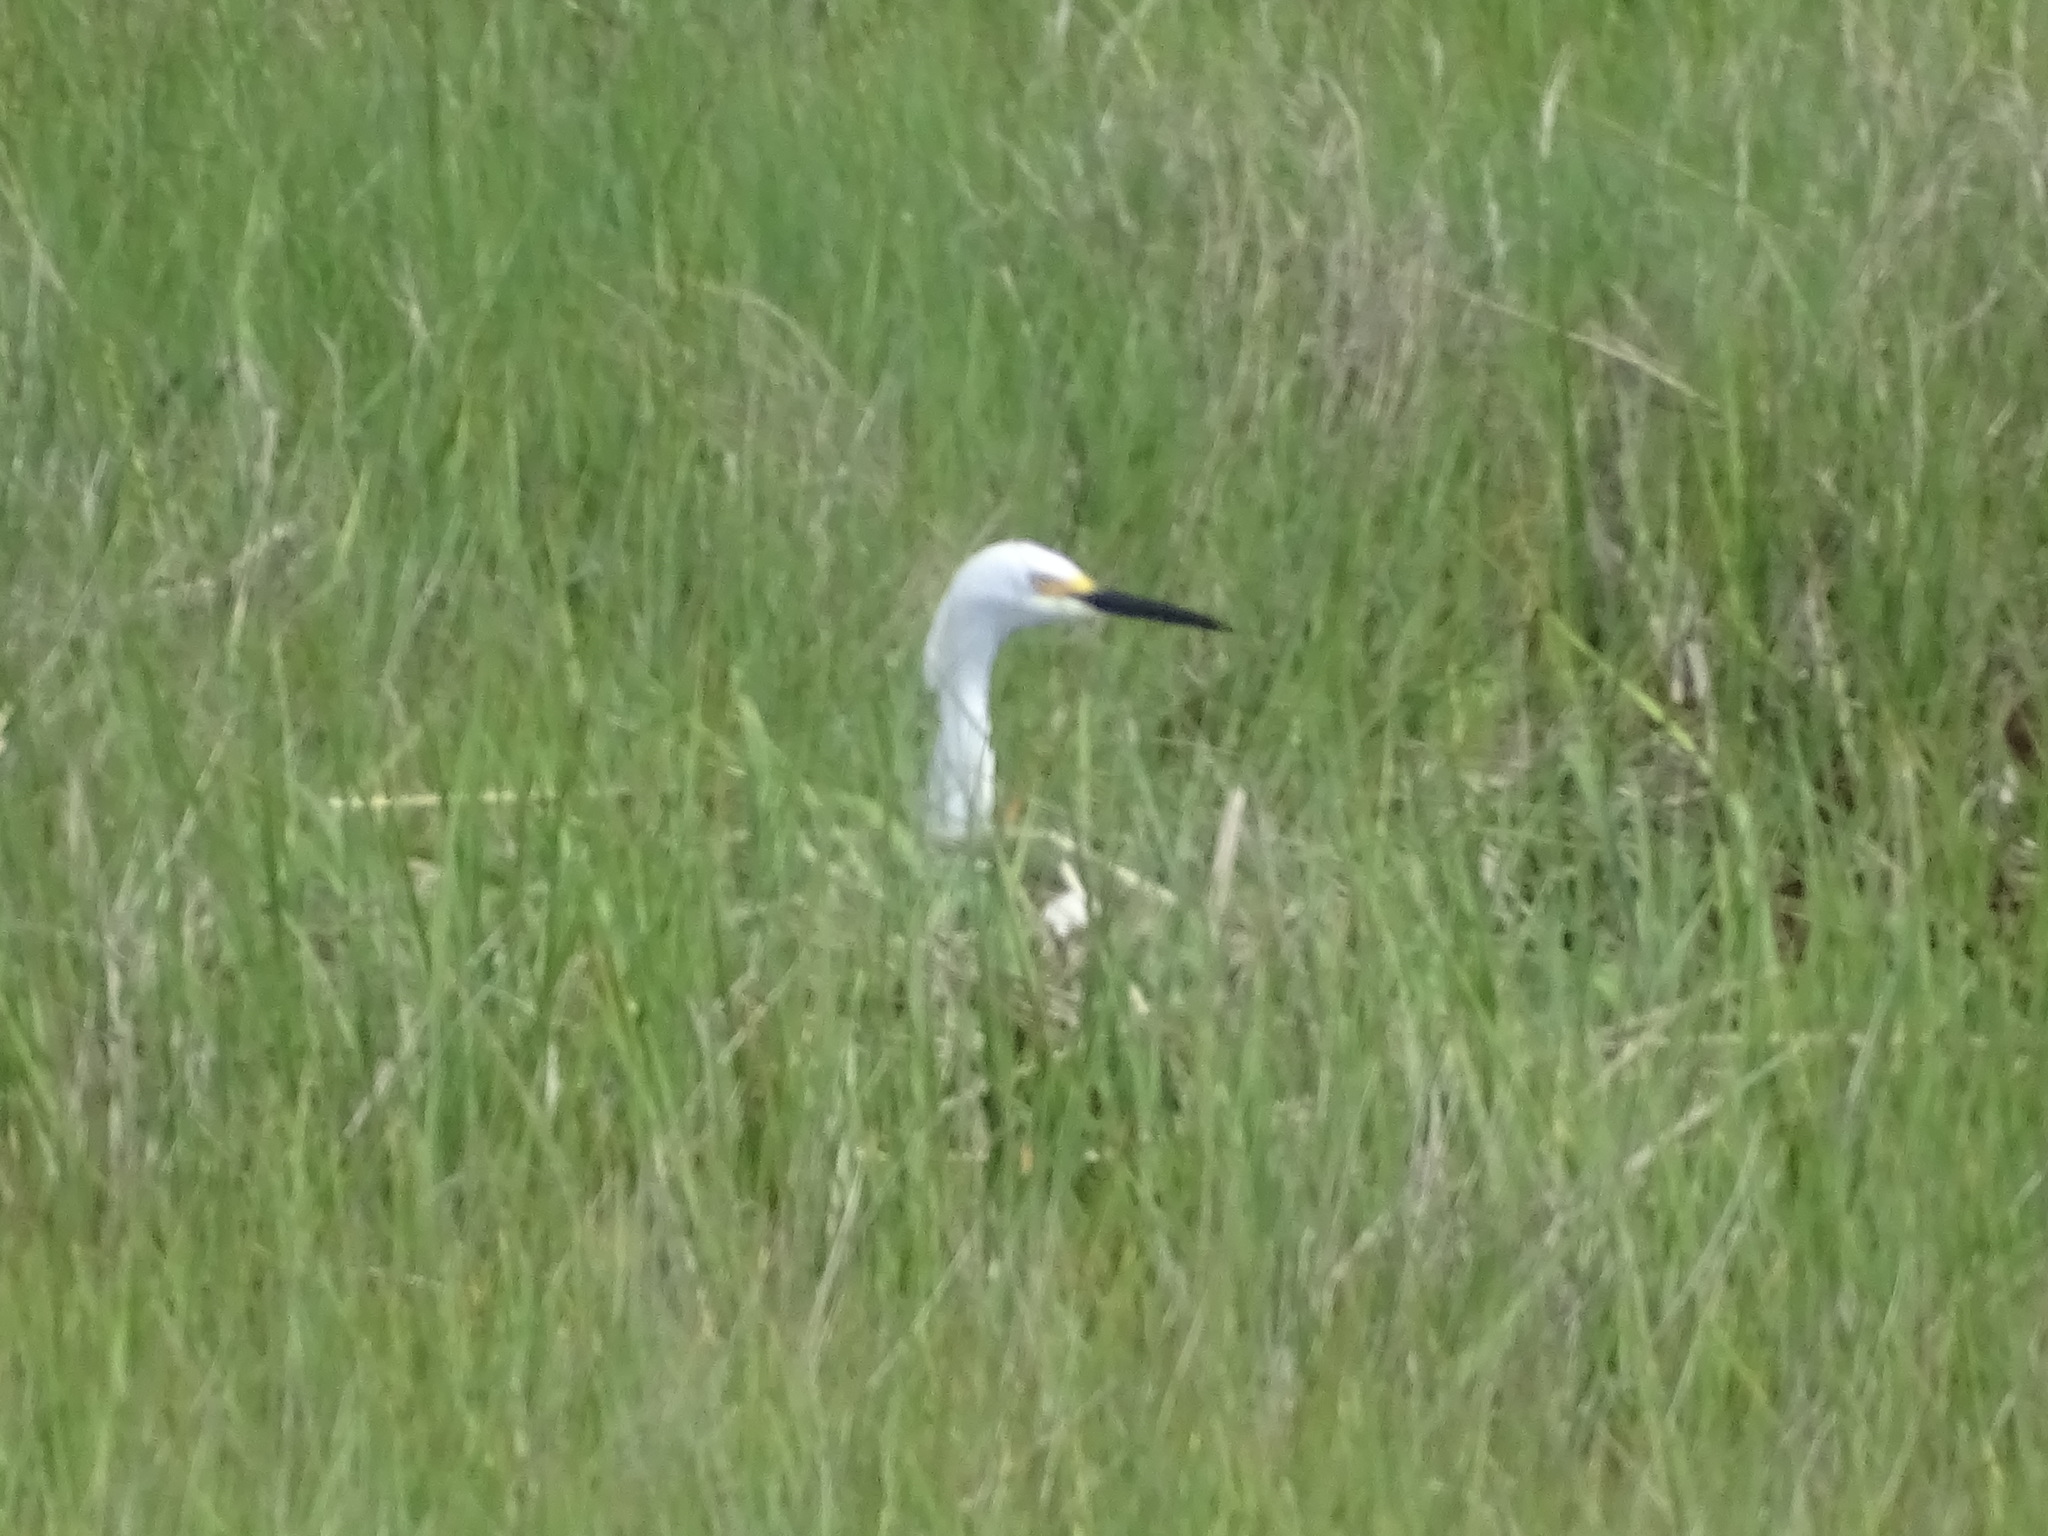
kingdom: Animalia
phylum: Chordata
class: Aves
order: Pelecaniformes
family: Ardeidae
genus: Egretta
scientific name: Egretta thula
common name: Snowy egret
